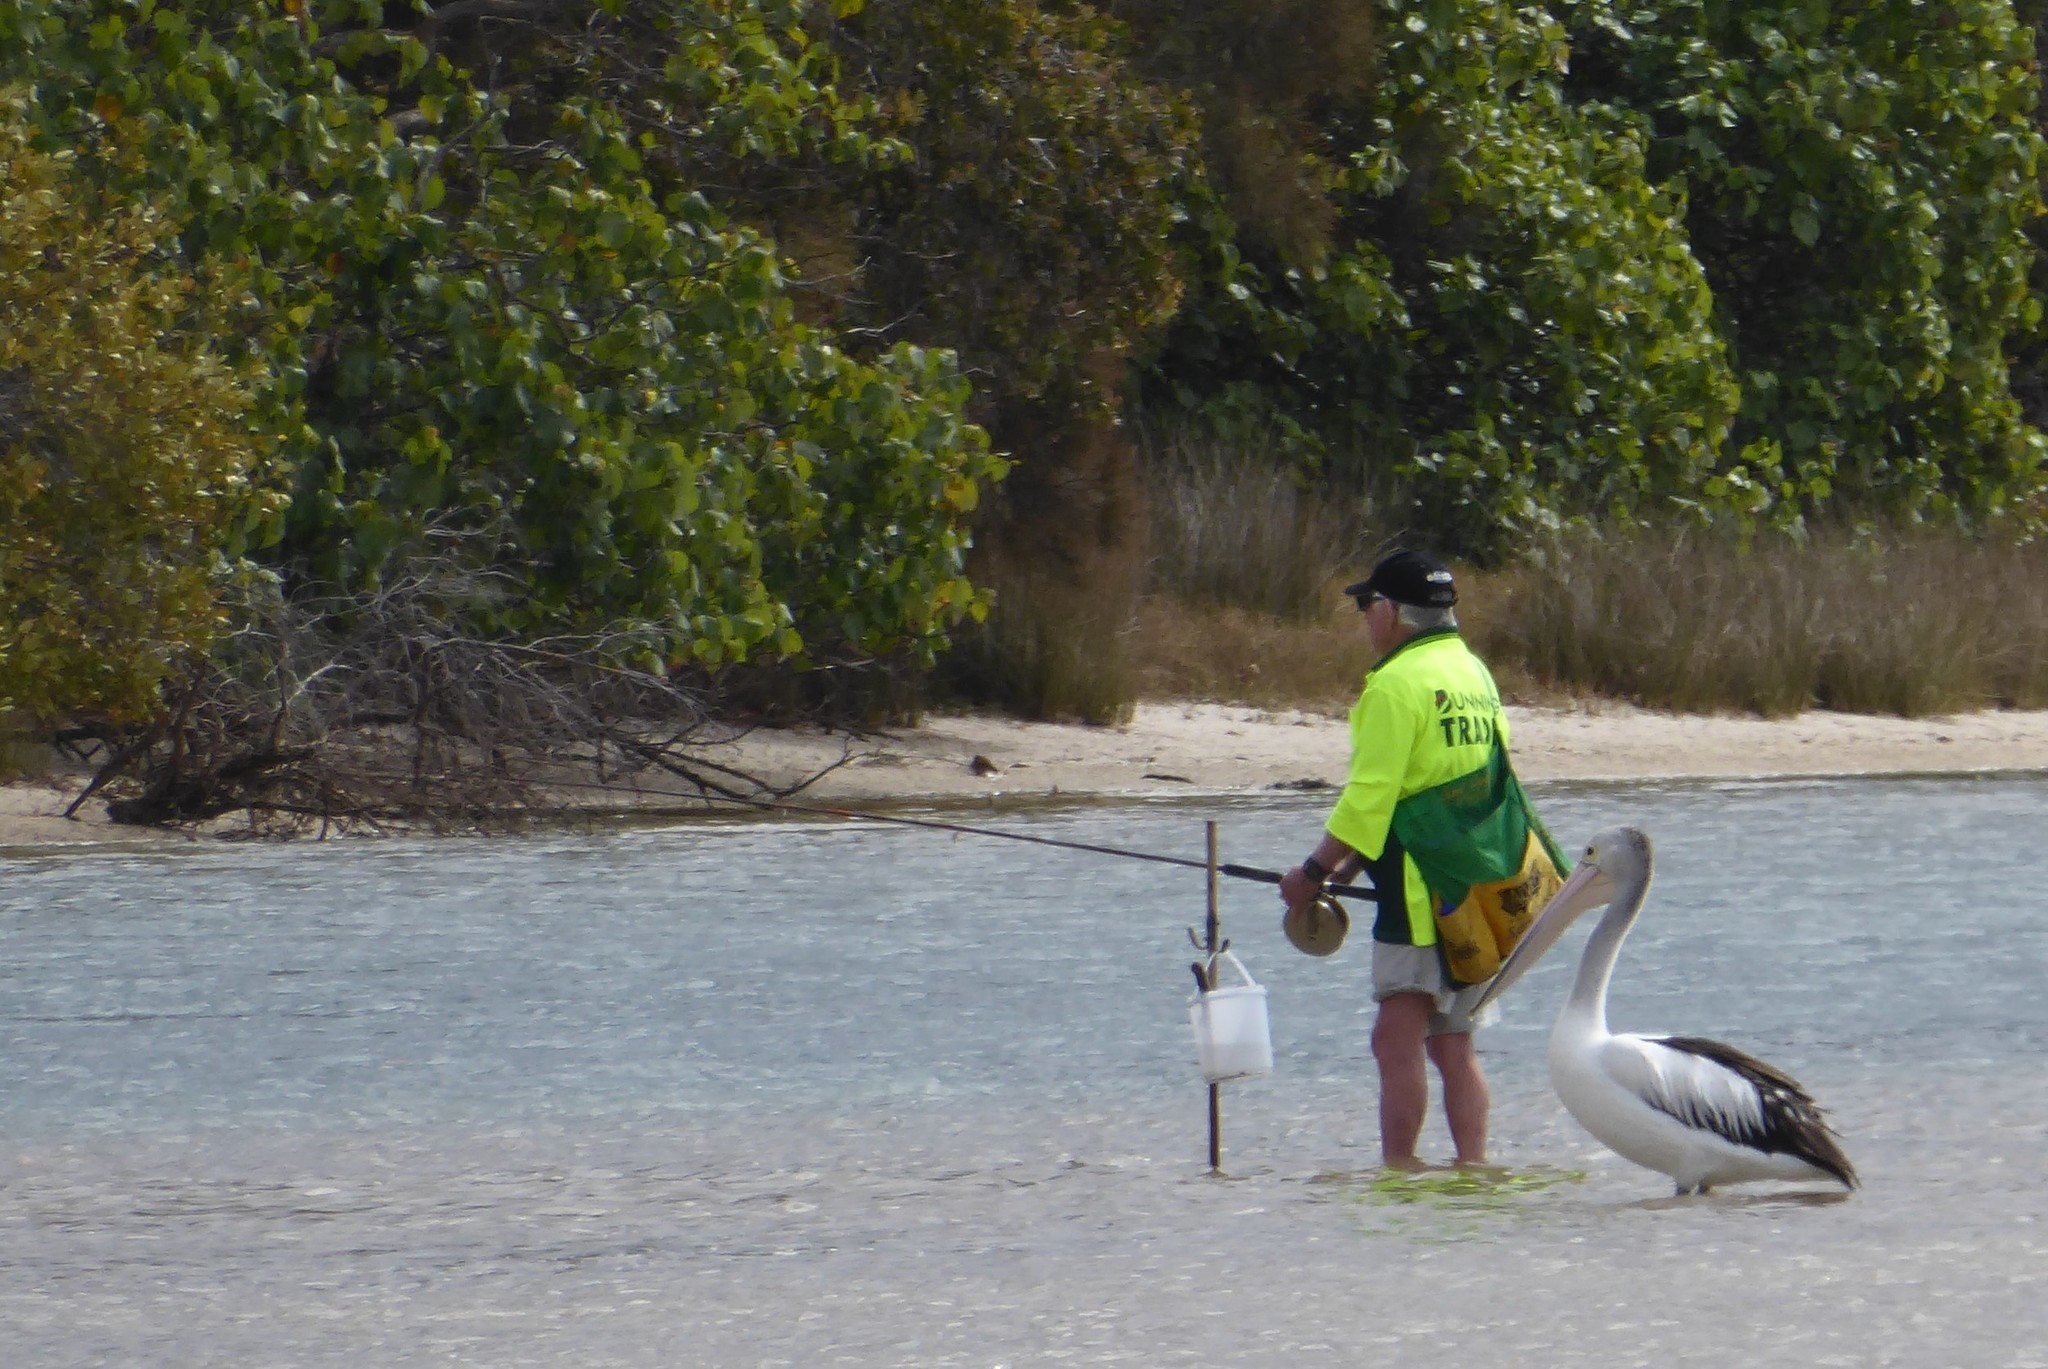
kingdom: Animalia
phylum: Chordata
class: Aves
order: Pelecaniformes
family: Pelecanidae
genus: Pelecanus
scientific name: Pelecanus conspicillatus
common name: Australian pelican
